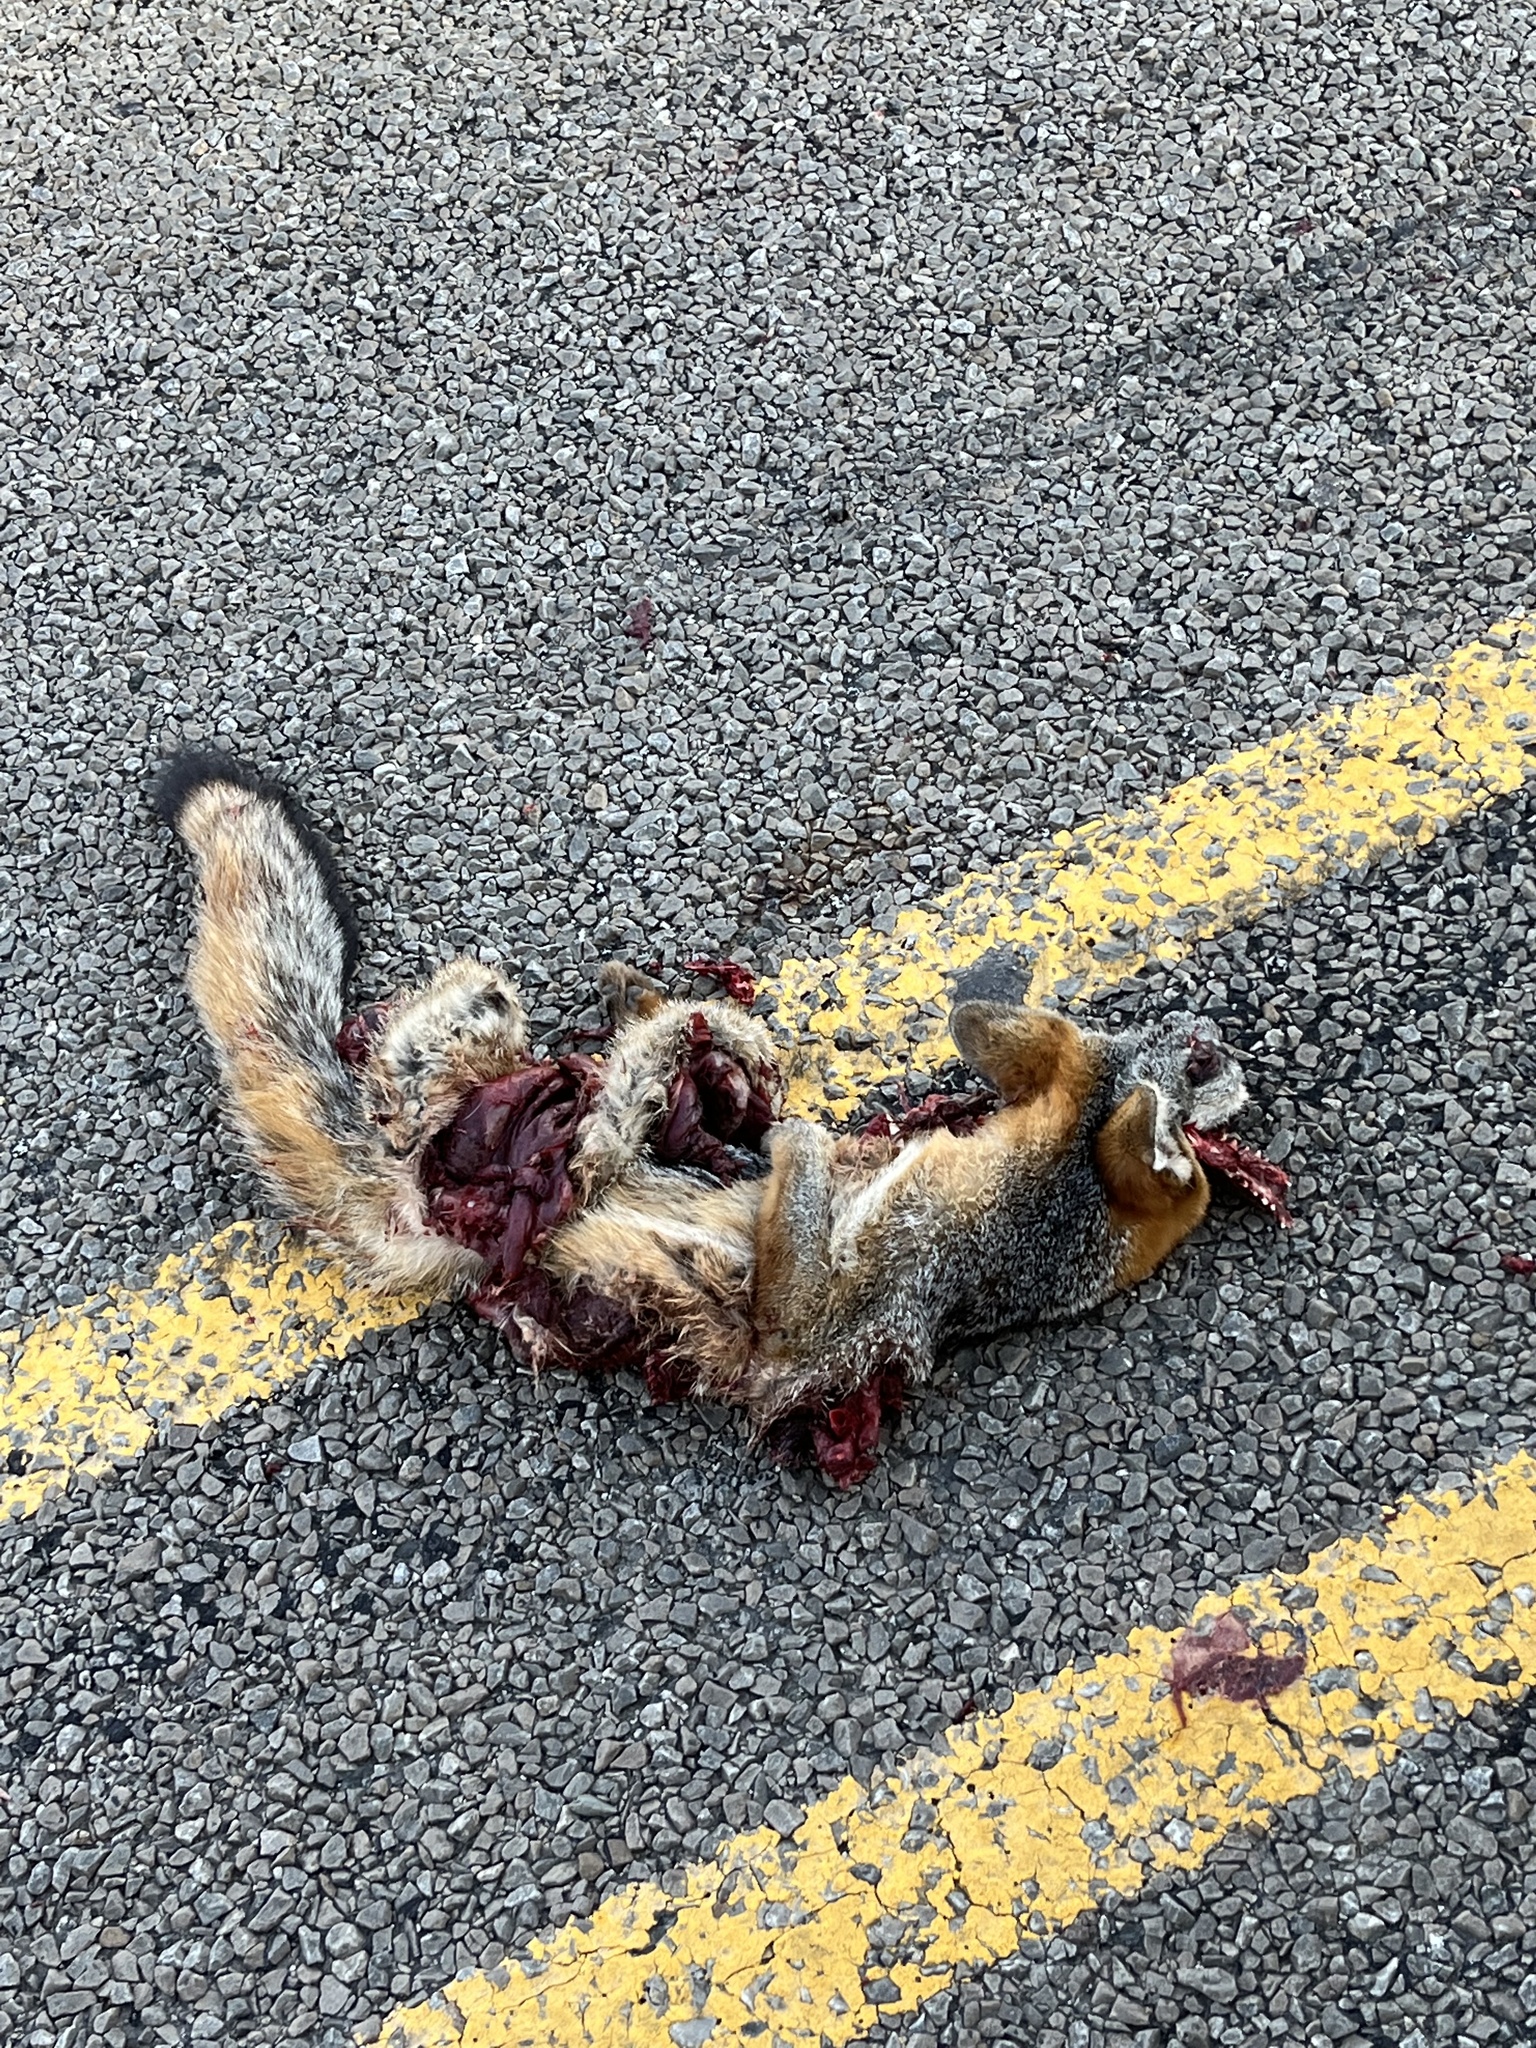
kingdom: Animalia
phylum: Chordata
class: Mammalia
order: Carnivora
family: Canidae
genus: Urocyon
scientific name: Urocyon cinereoargenteus
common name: Gray fox
